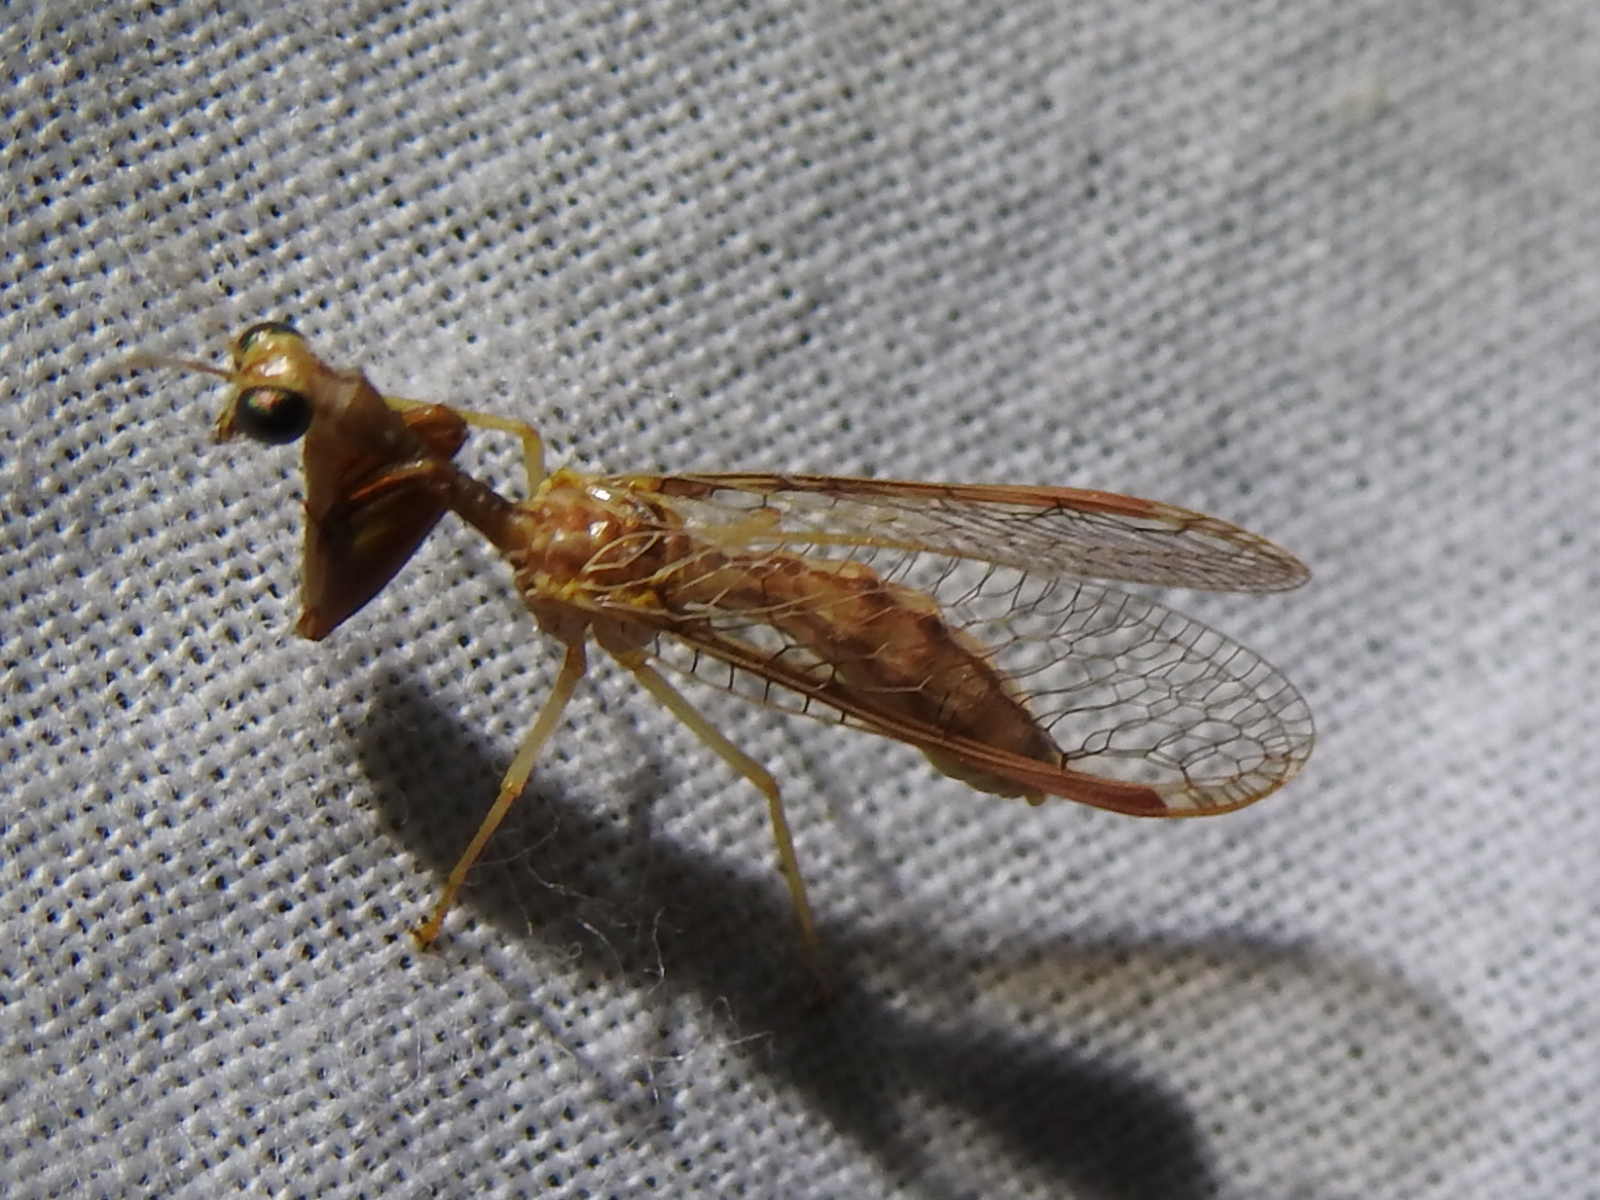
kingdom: Animalia
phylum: Arthropoda
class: Insecta
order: Neuroptera
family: Mantispidae
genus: Dicromantispa
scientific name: Dicromantispa sayi
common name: Say's mantidfly
